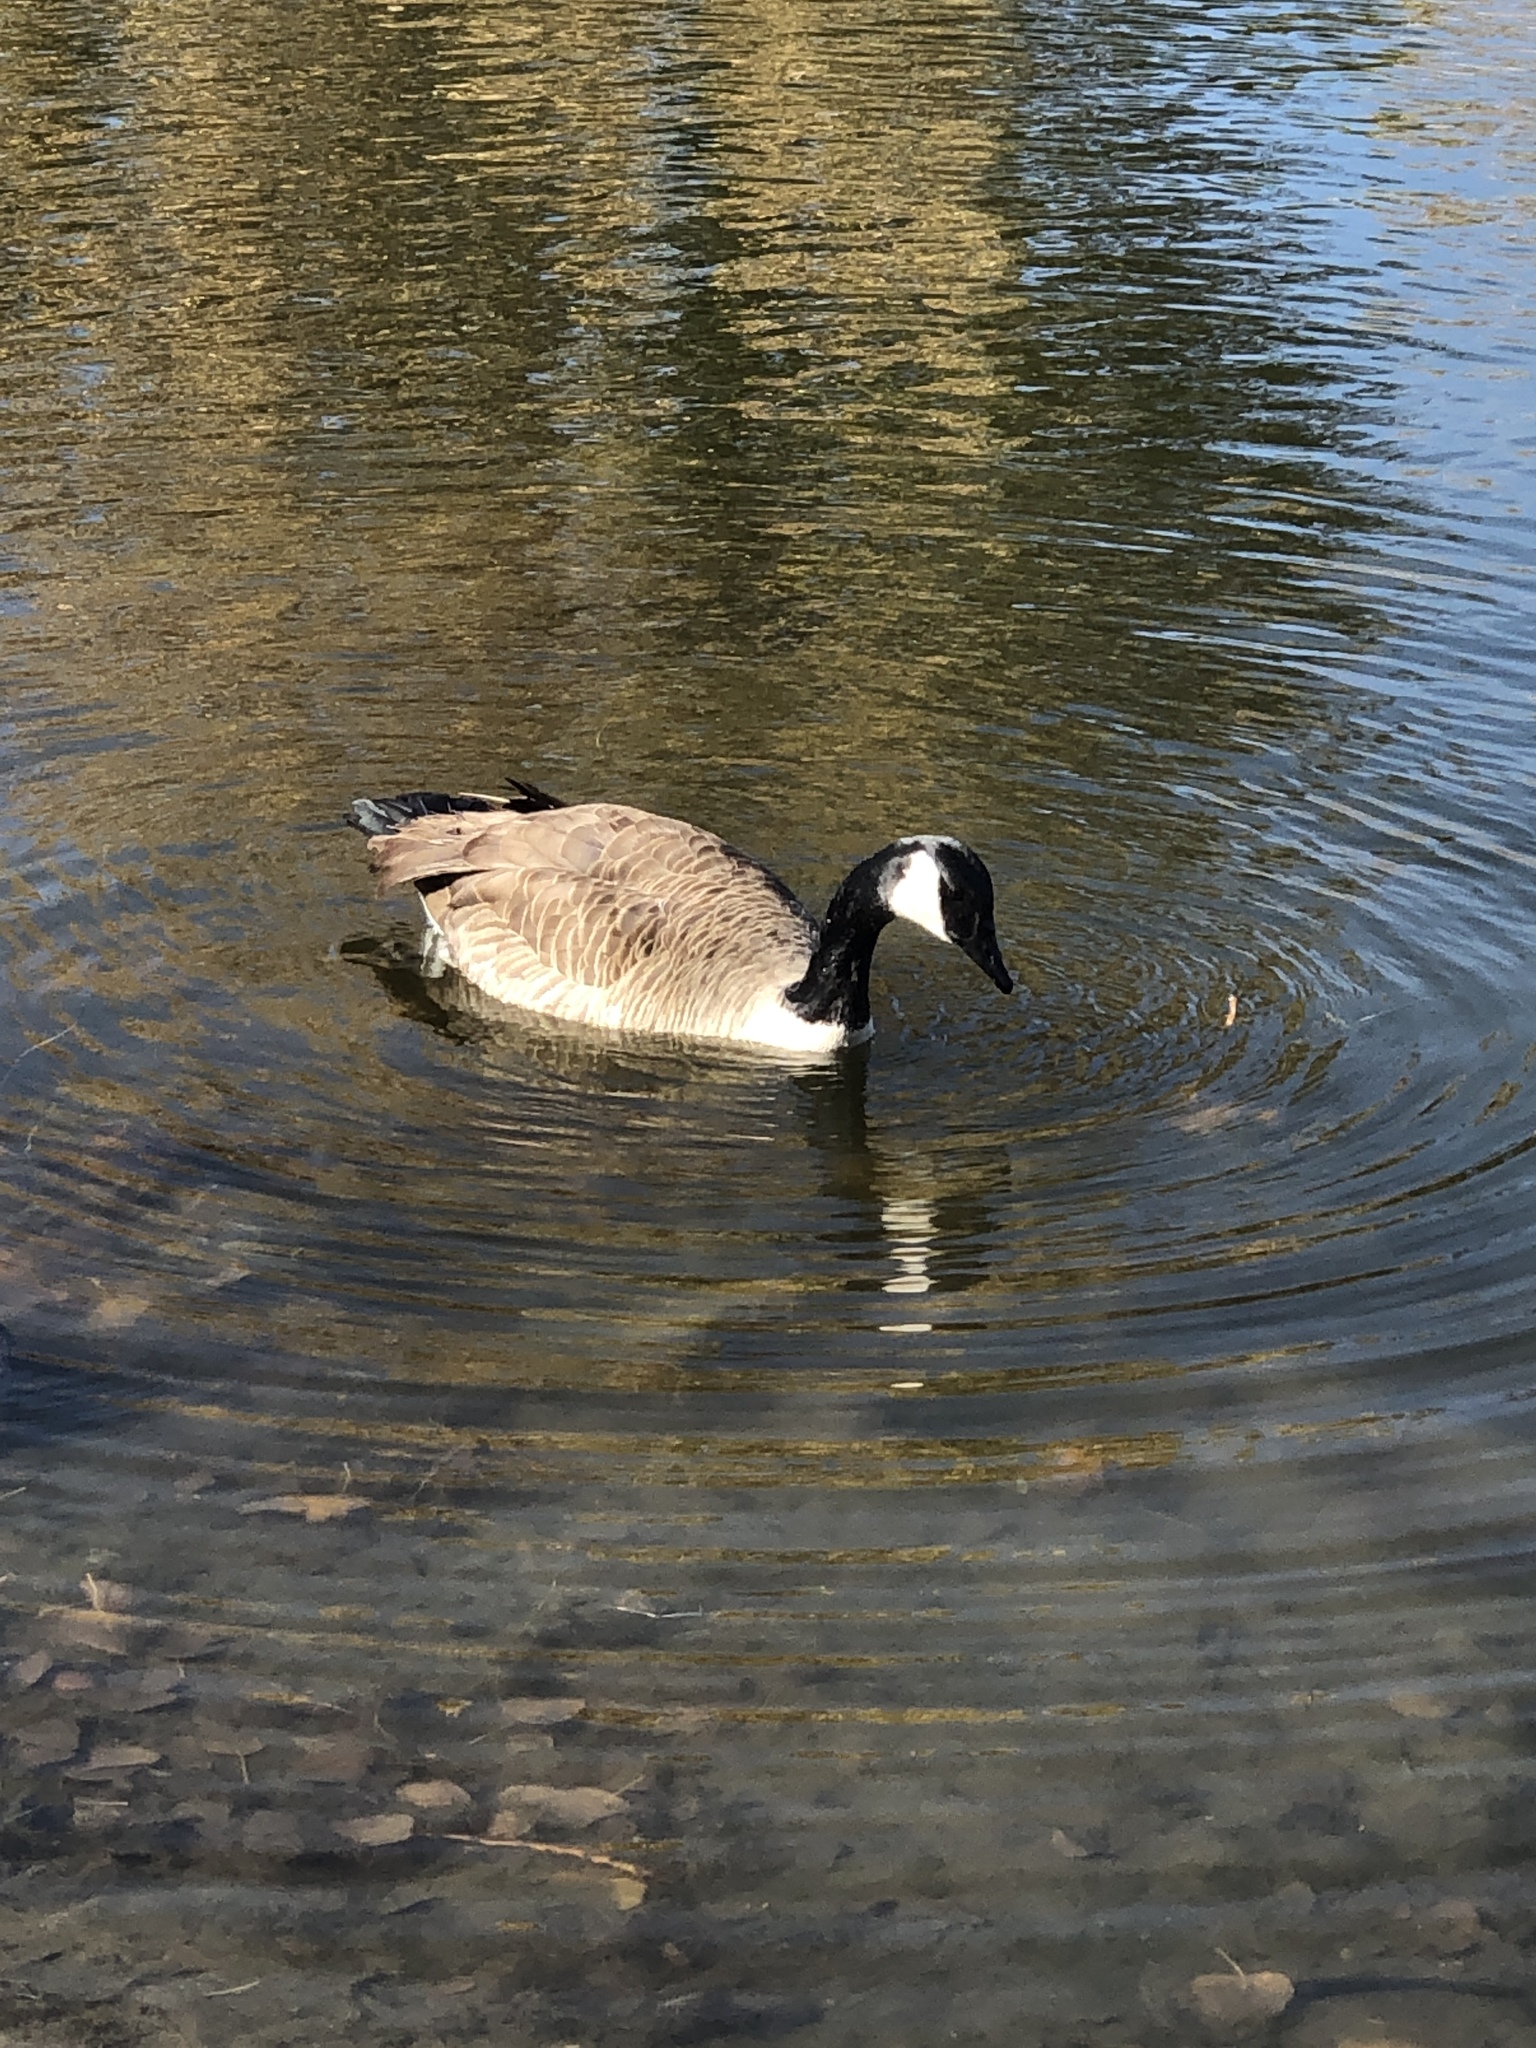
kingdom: Animalia
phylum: Chordata
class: Aves
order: Anseriformes
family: Anatidae
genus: Branta
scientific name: Branta canadensis
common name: Canada goose
